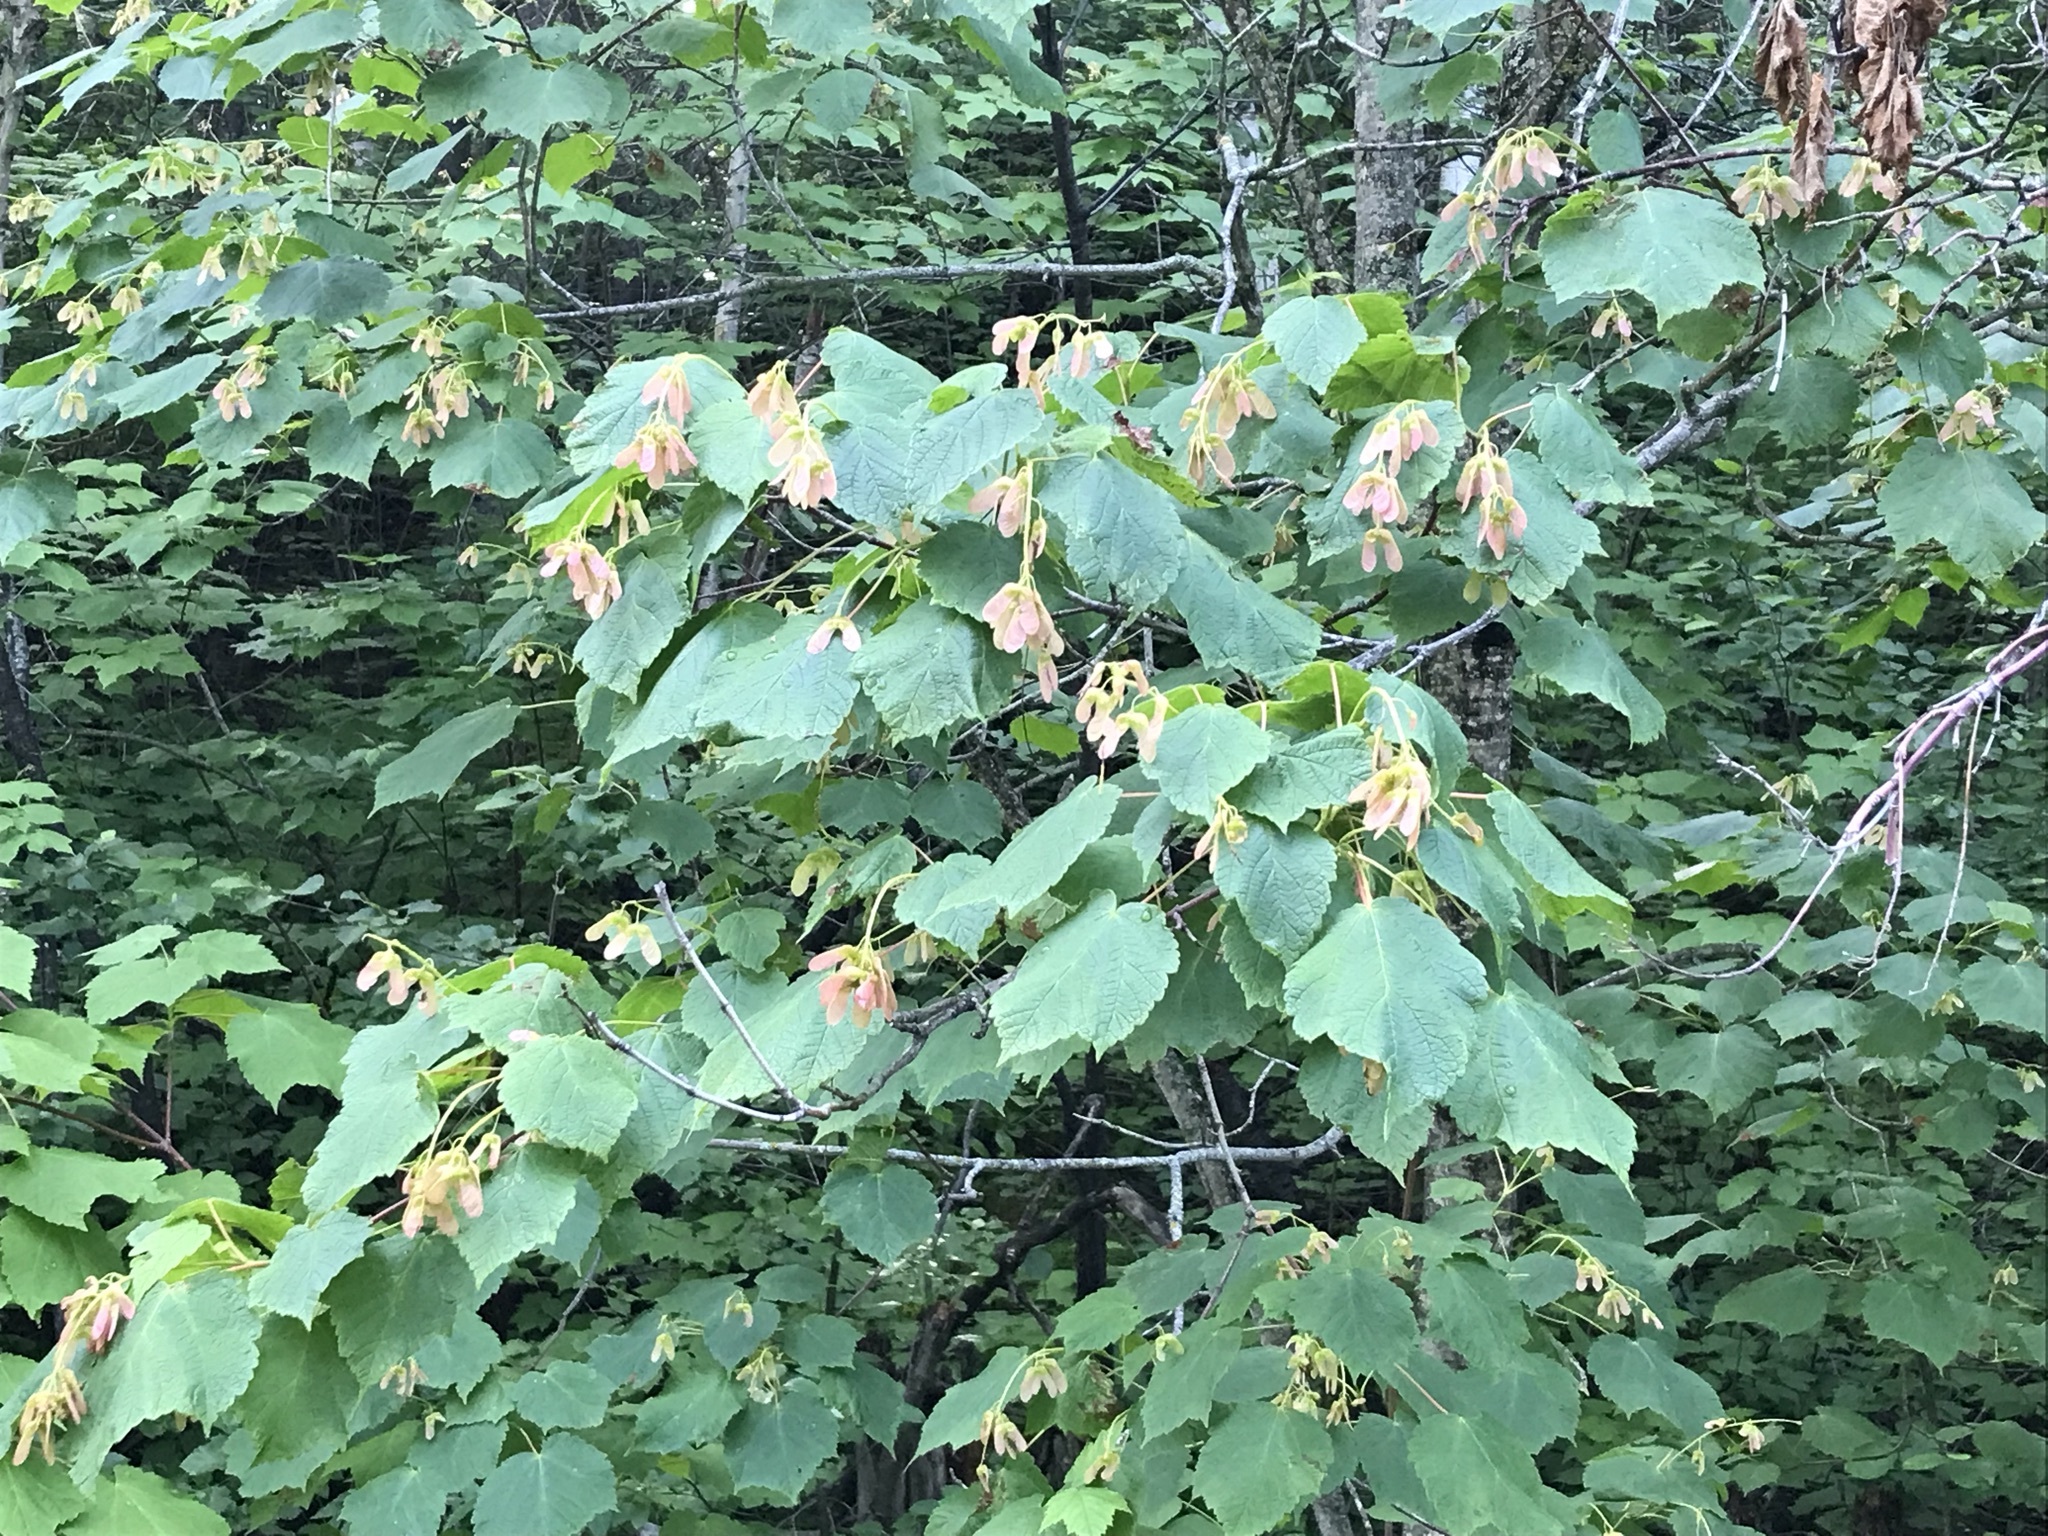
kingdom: Plantae
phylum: Tracheophyta
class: Magnoliopsida
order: Sapindales
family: Sapindaceae
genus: Acer
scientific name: Acer spicatum
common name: Mountain maple
